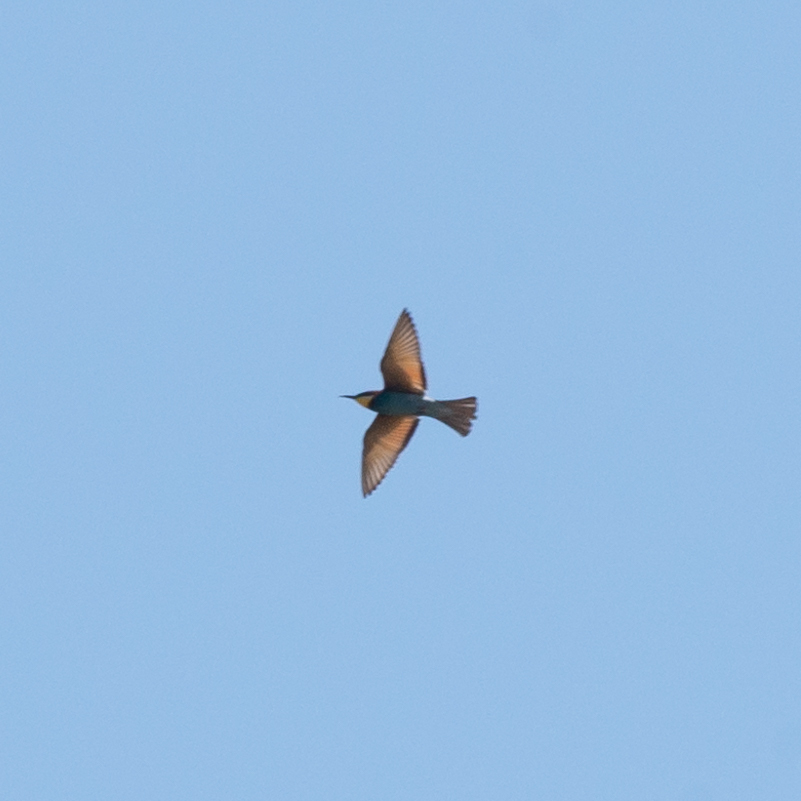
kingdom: Animalia
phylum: Chordata
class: Aves
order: Coraciiformes
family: Meropidae
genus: Merops
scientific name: Merops apiaster
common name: European bee-eater
